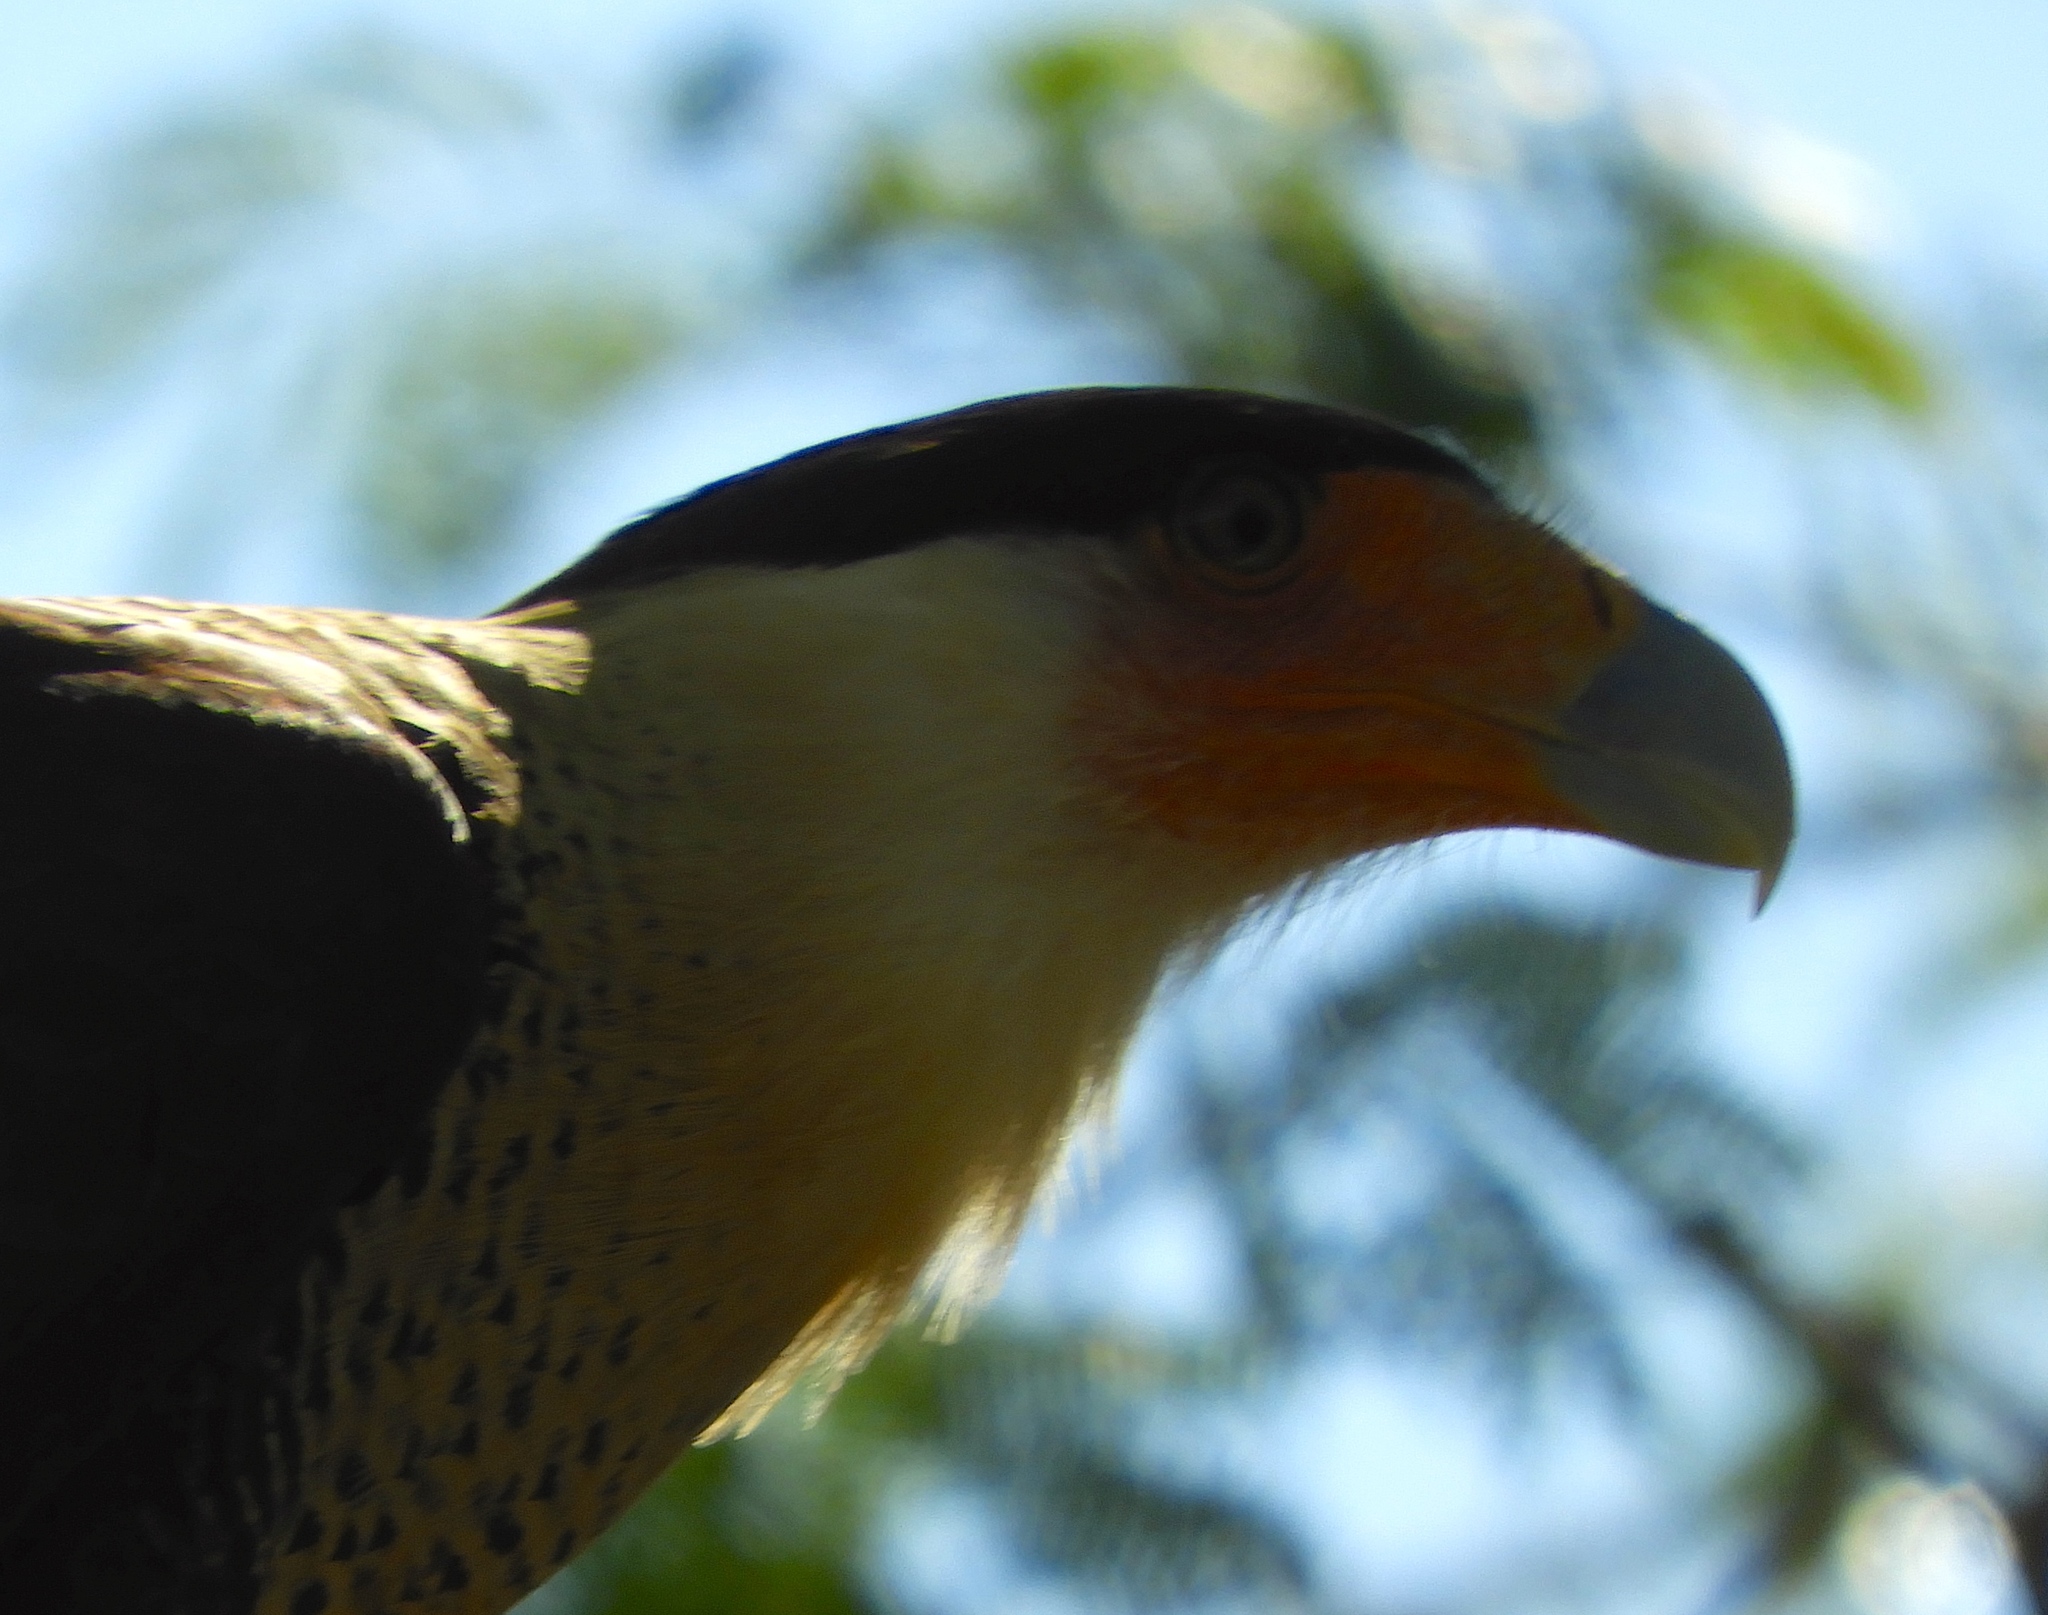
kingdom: Animalia
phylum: Chordata
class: Aves
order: Falconiformes
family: Falconidae
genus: Caracara
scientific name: Caracara plancus
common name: Southern caracara
